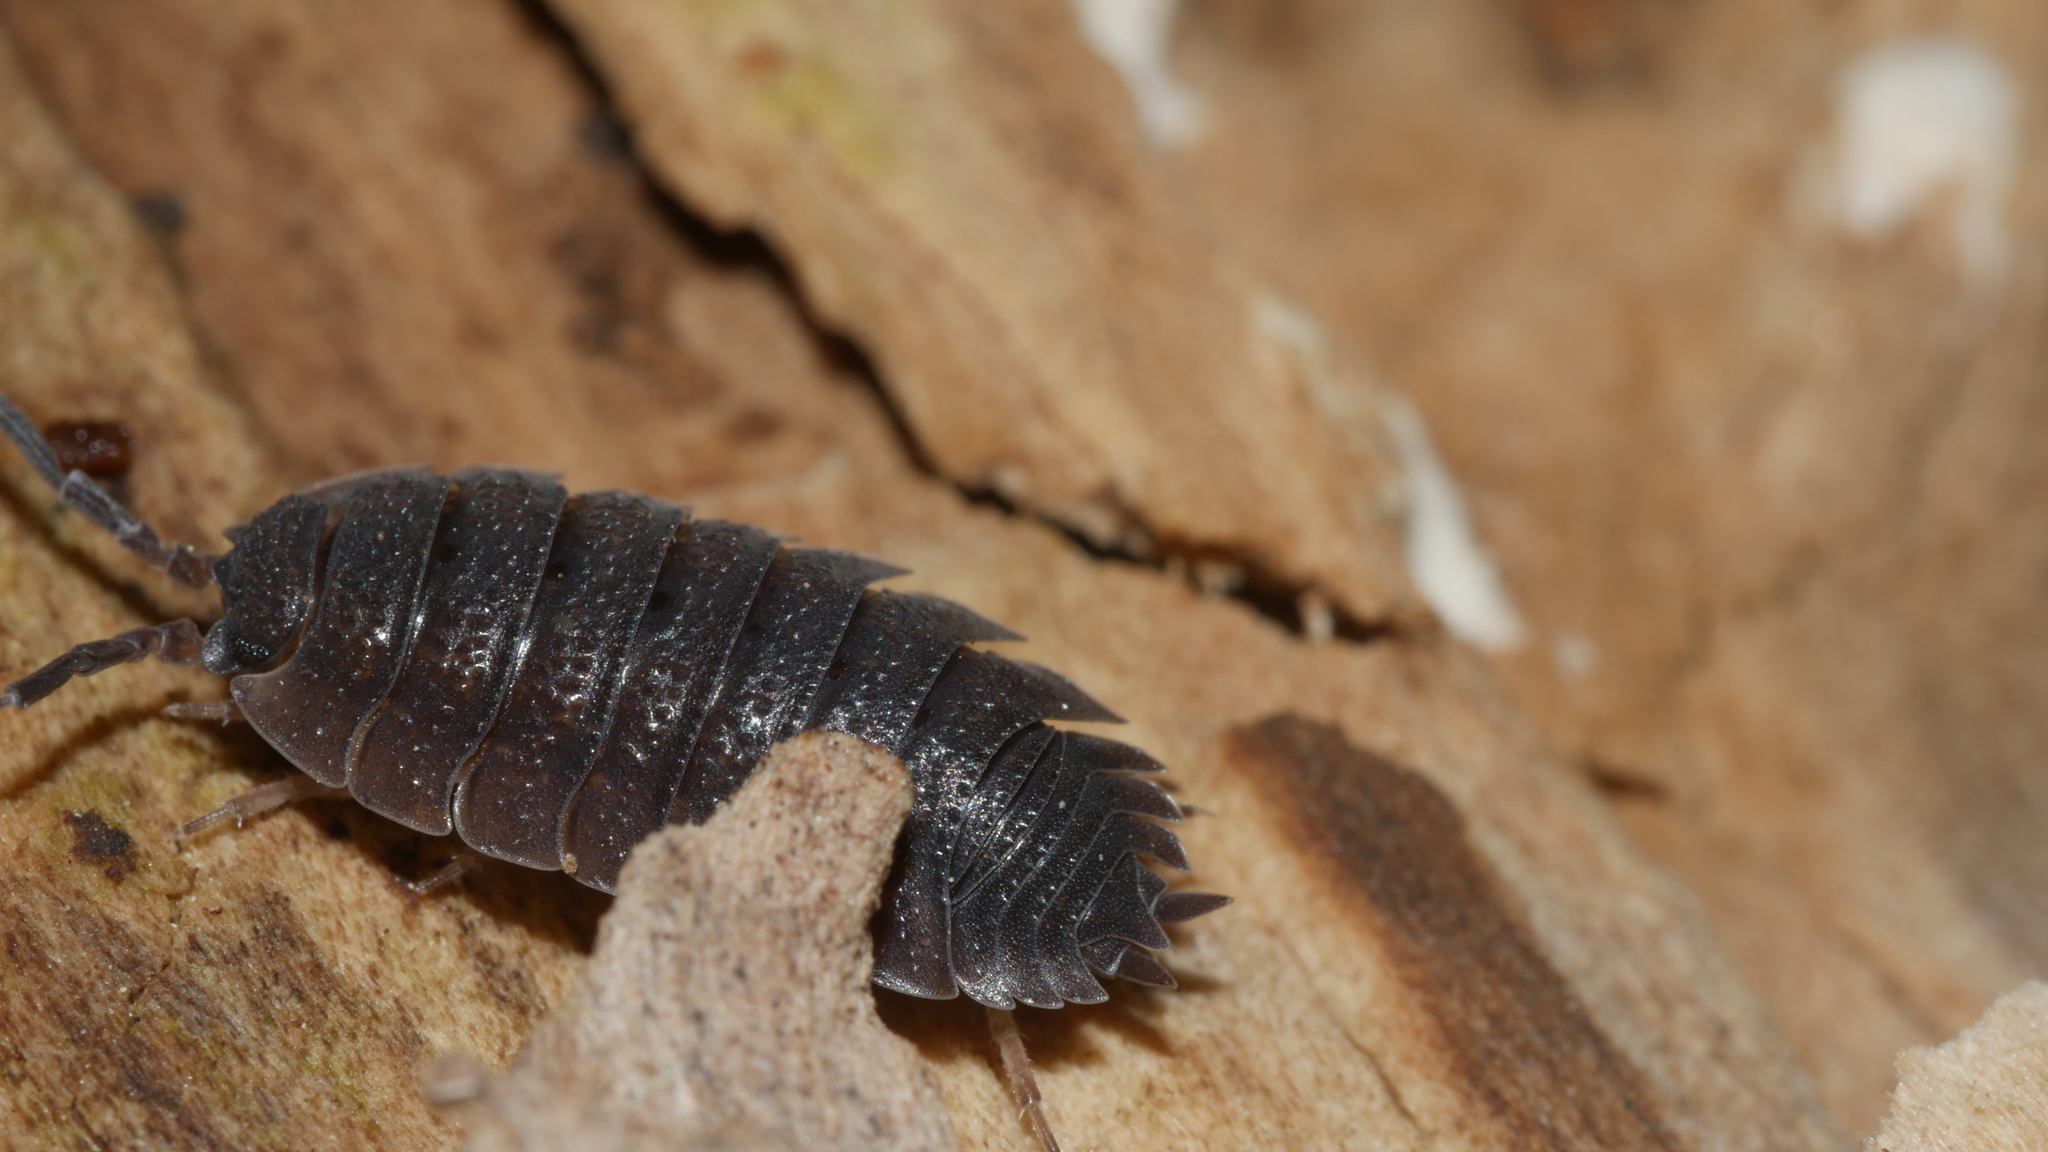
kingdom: Animalia
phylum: Arthropoda
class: Malacostraca
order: Isopoda
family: Porcellionidae
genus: Porcellio
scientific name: Porcellio scaber
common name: Common rough woodlouse
